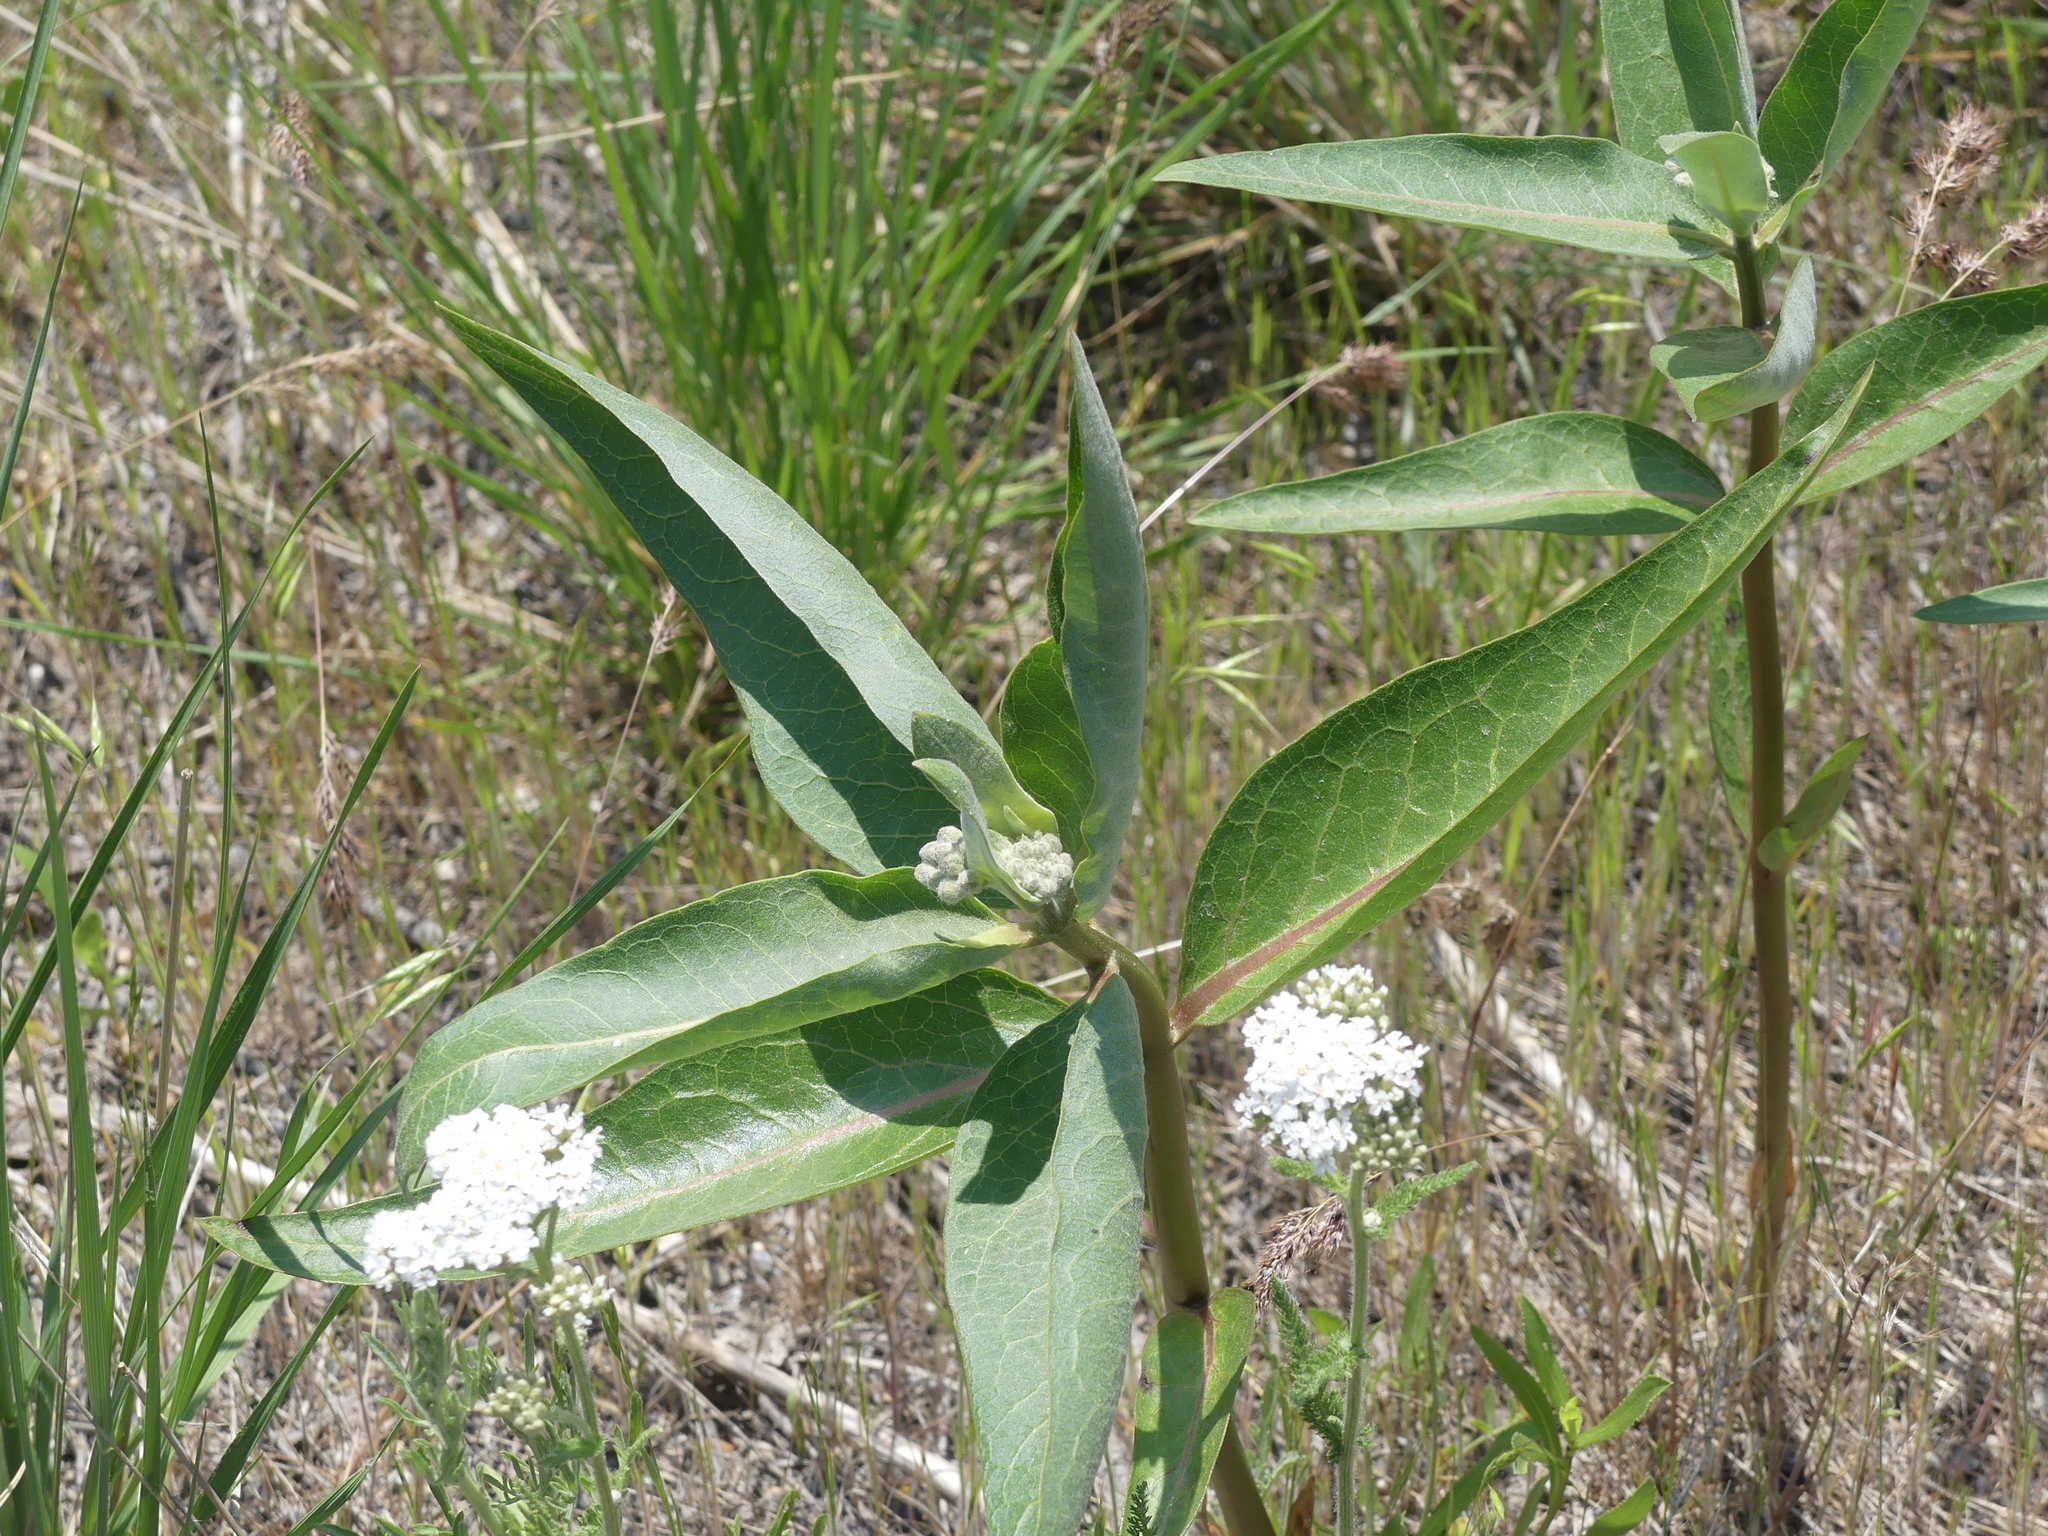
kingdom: Plantae
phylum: Tracheophyta
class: Magnoliopsida
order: Gentianales
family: Apocynaceae
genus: Asclepias
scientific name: Asclepias speciosa
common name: Showy milkweed
